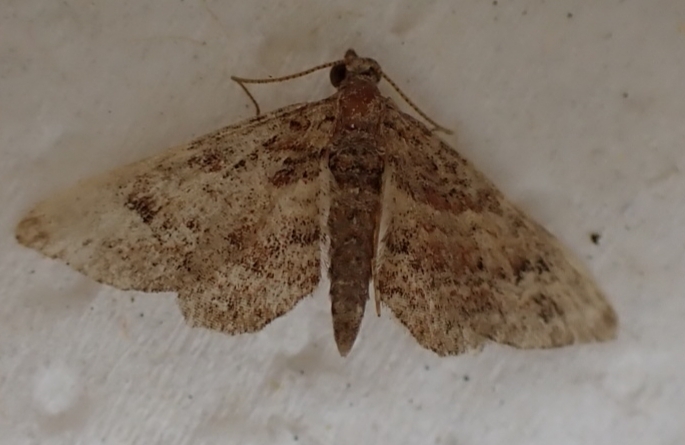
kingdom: Animalia
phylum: Arthropoda
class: Insecta
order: Lepidoptera
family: Geometridae
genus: Gymnoscelis
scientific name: Gymnoscelis rufifasciata
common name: Double-striped pug
